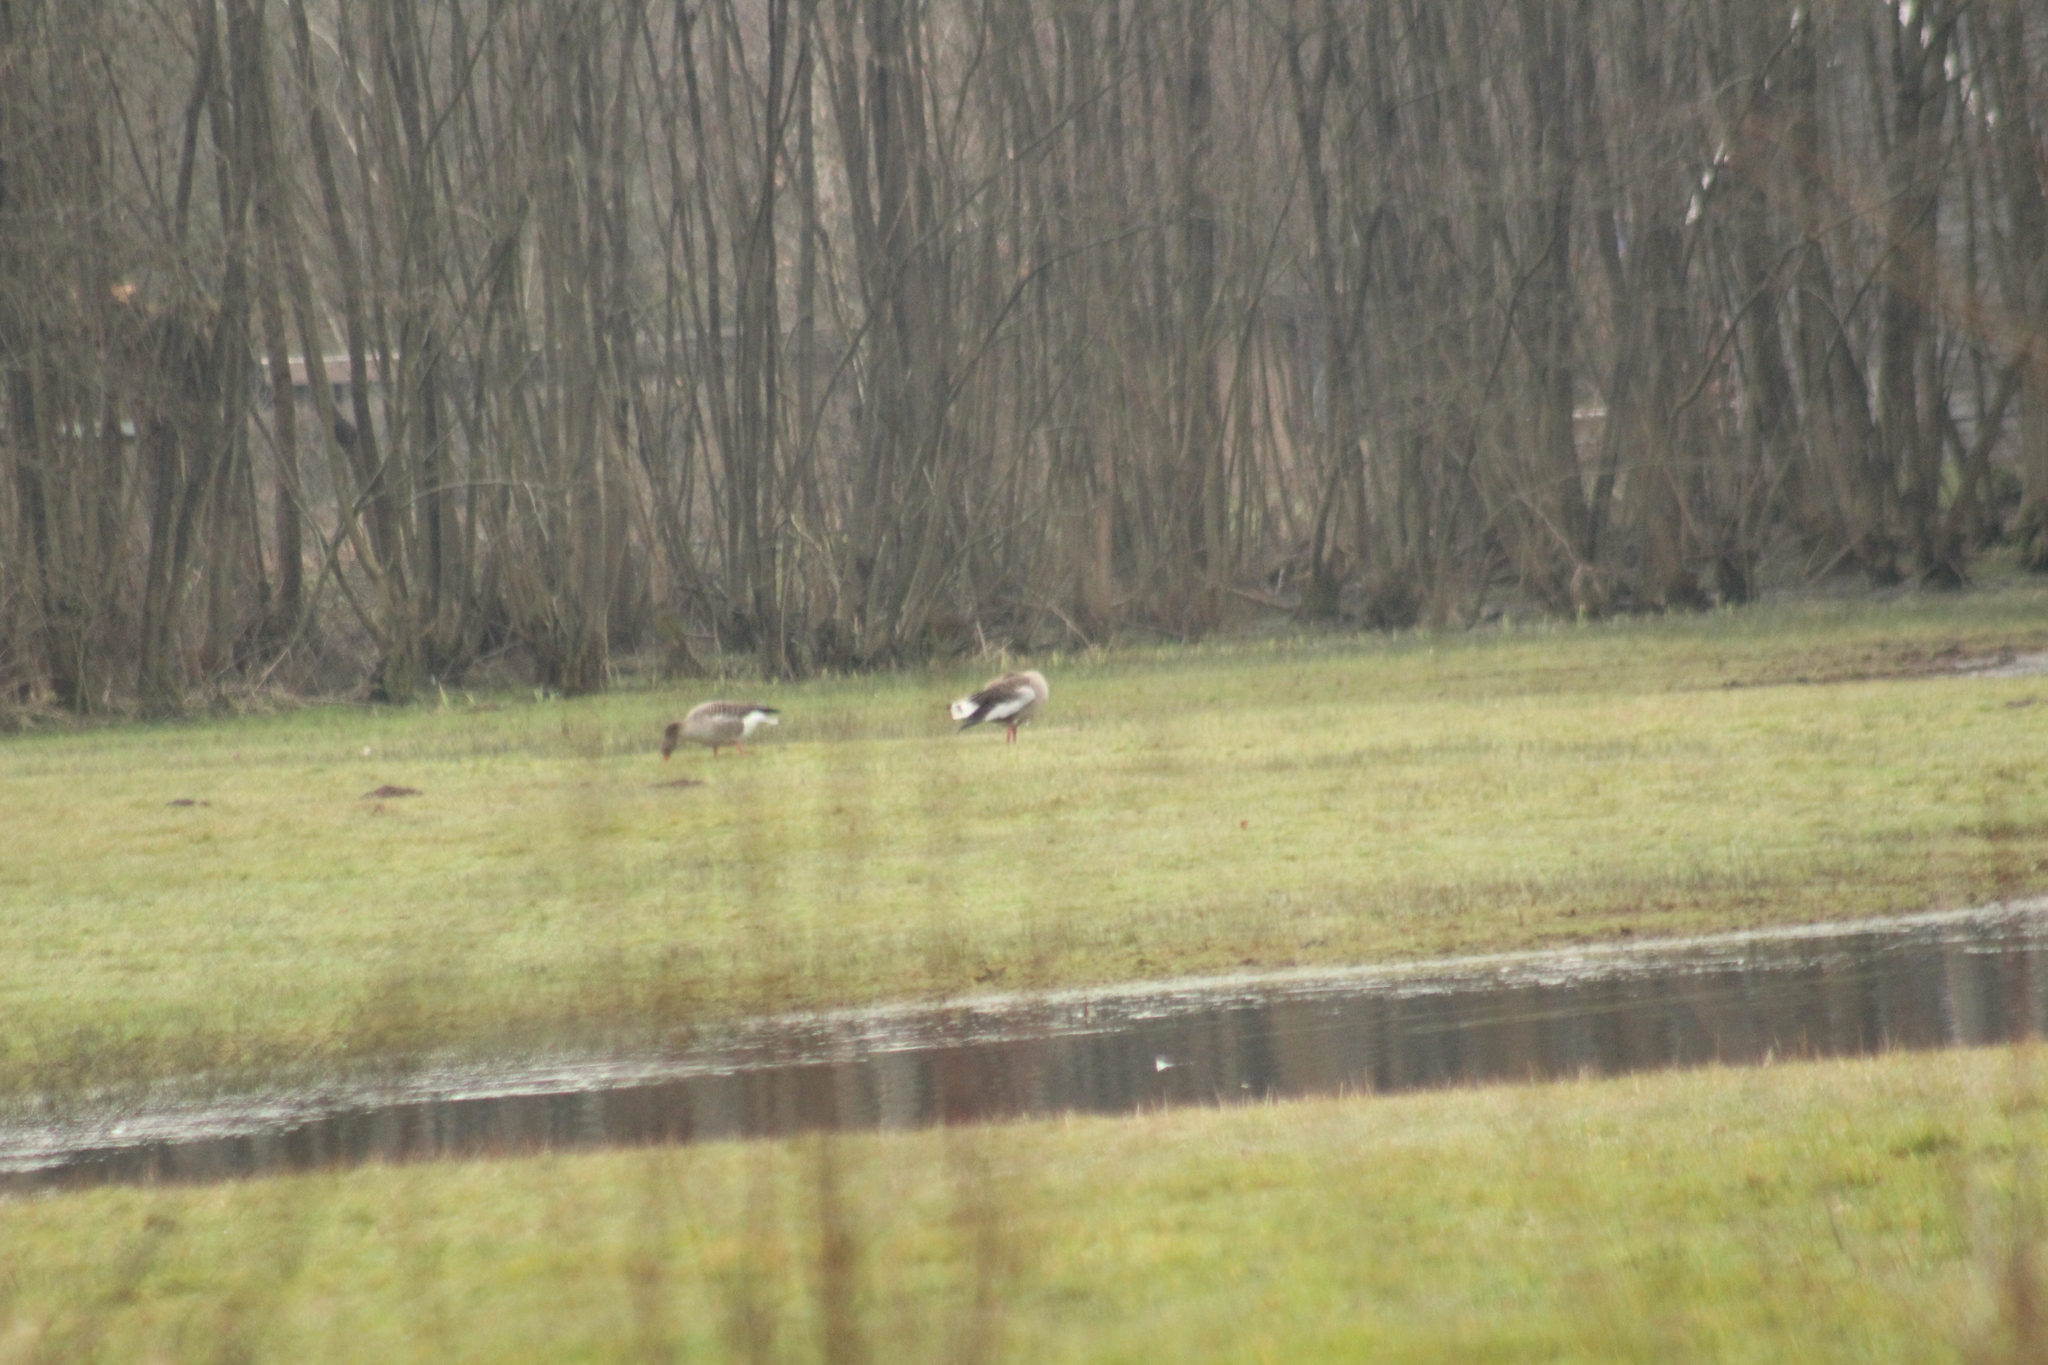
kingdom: Animalia
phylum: Chordata
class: Aves
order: Anseriformes
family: Anatidae
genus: Anser
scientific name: Anser anser
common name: Greylag goose
